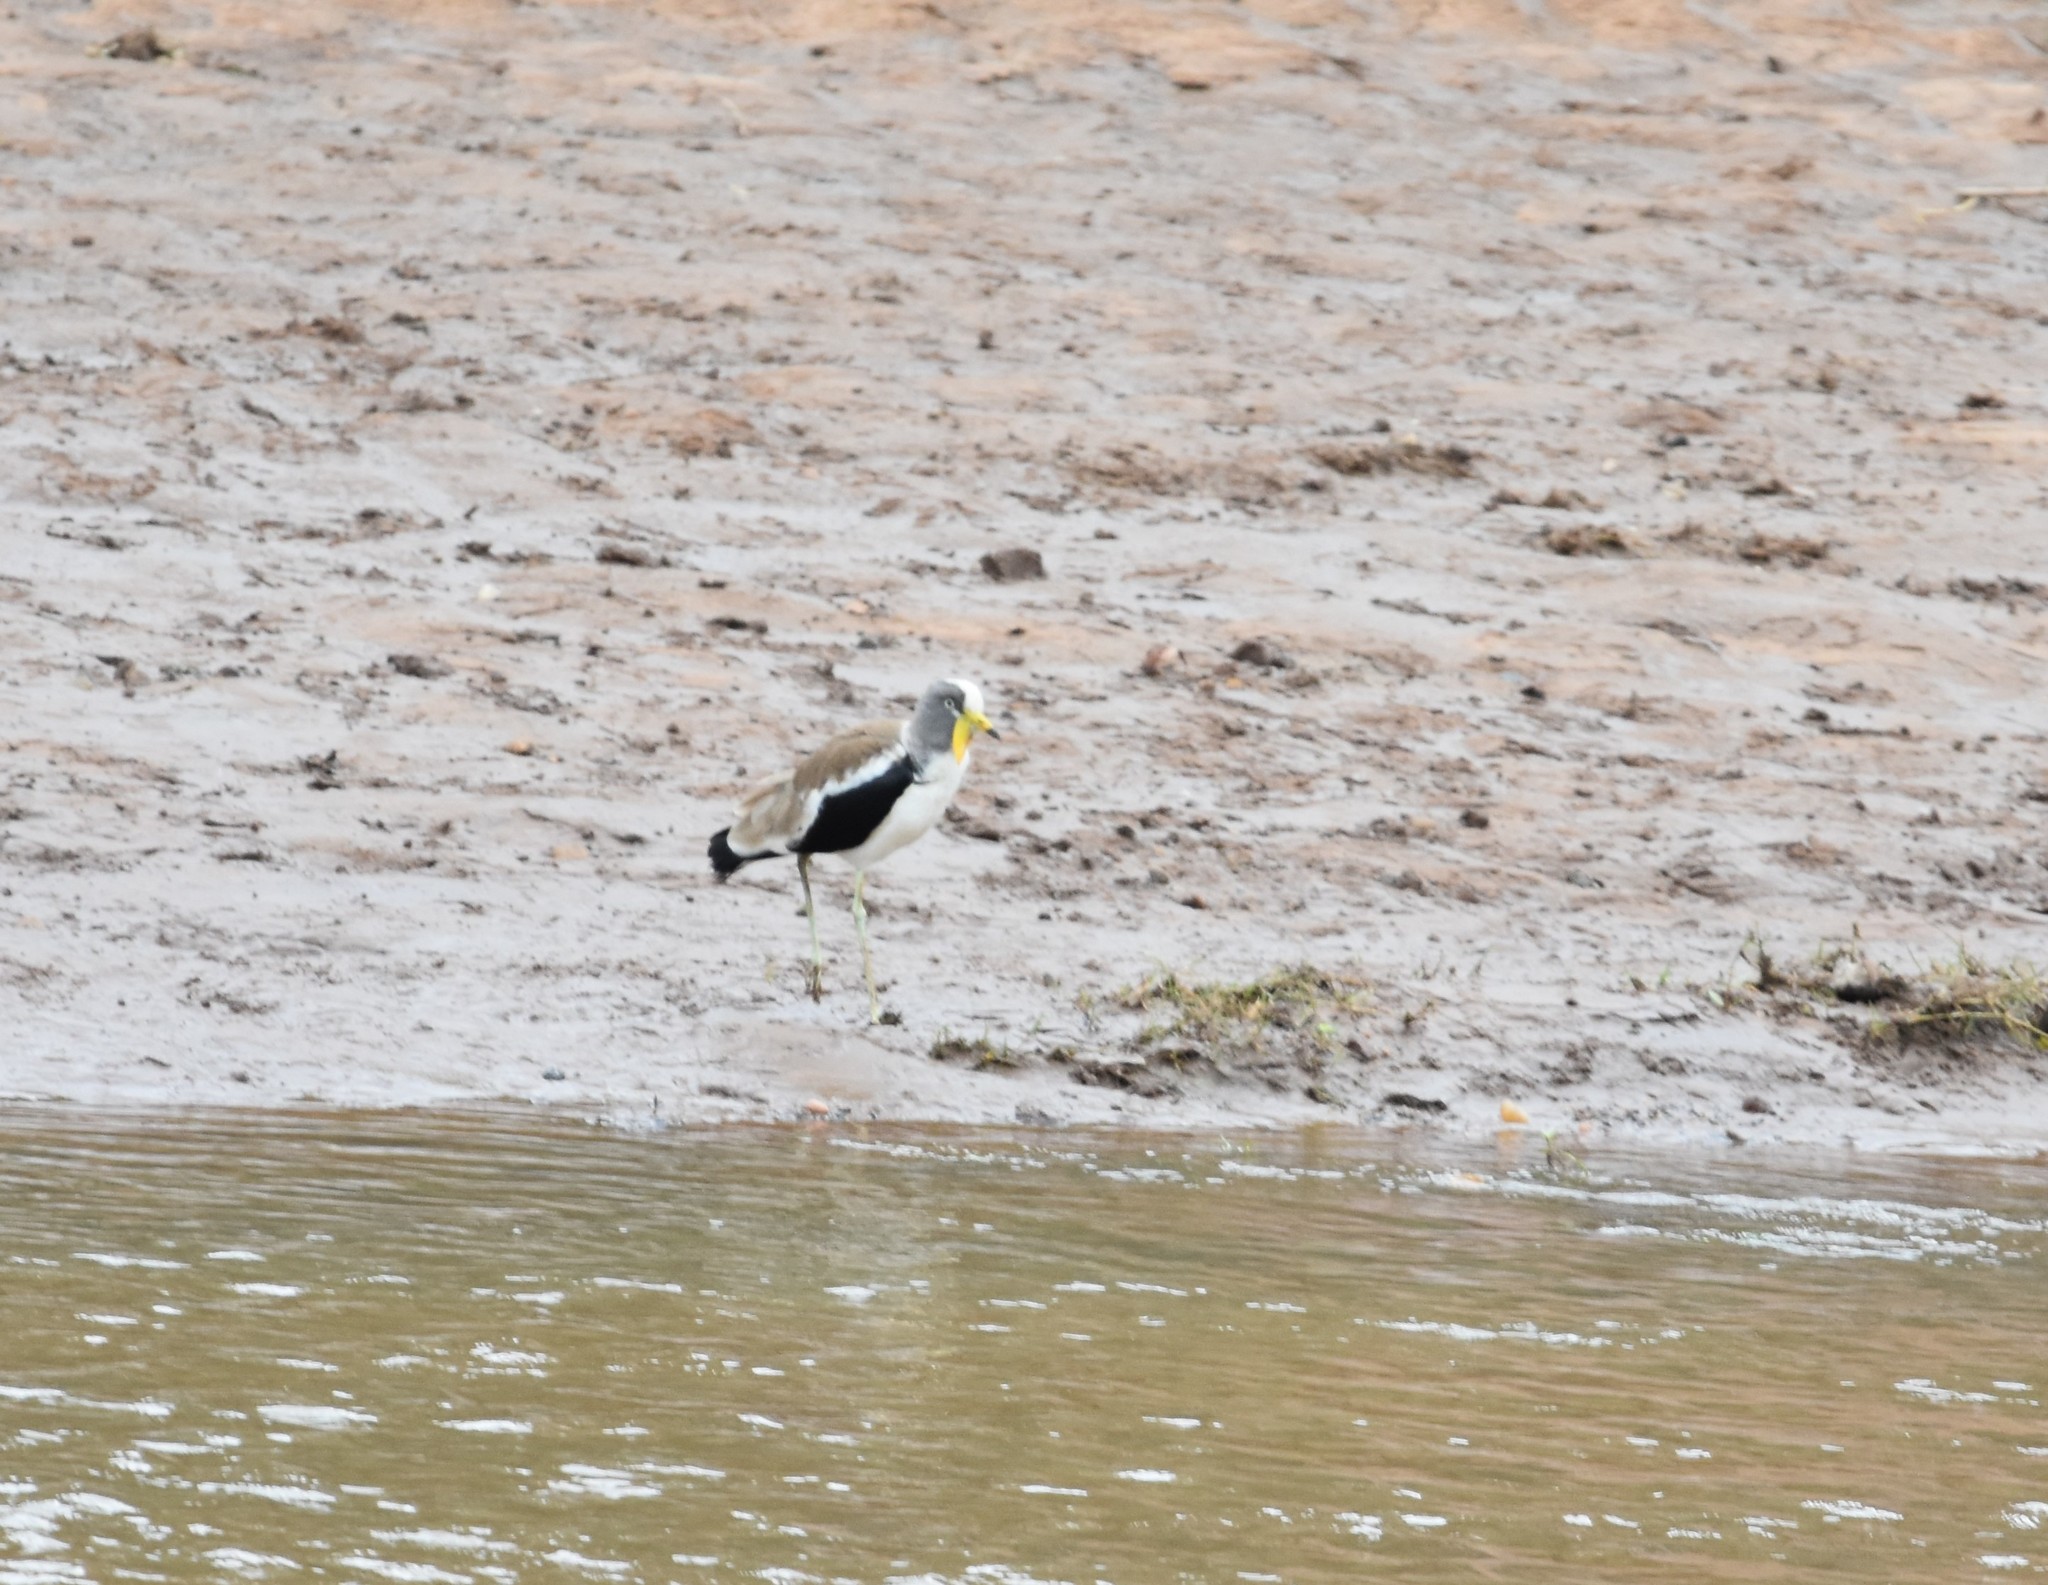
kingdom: Animalia
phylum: Chordata
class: Aves
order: Charadriiformes
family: Charadriidae
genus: Vanellus
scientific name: Vanellus albiceps
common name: White-crowned lapwing
